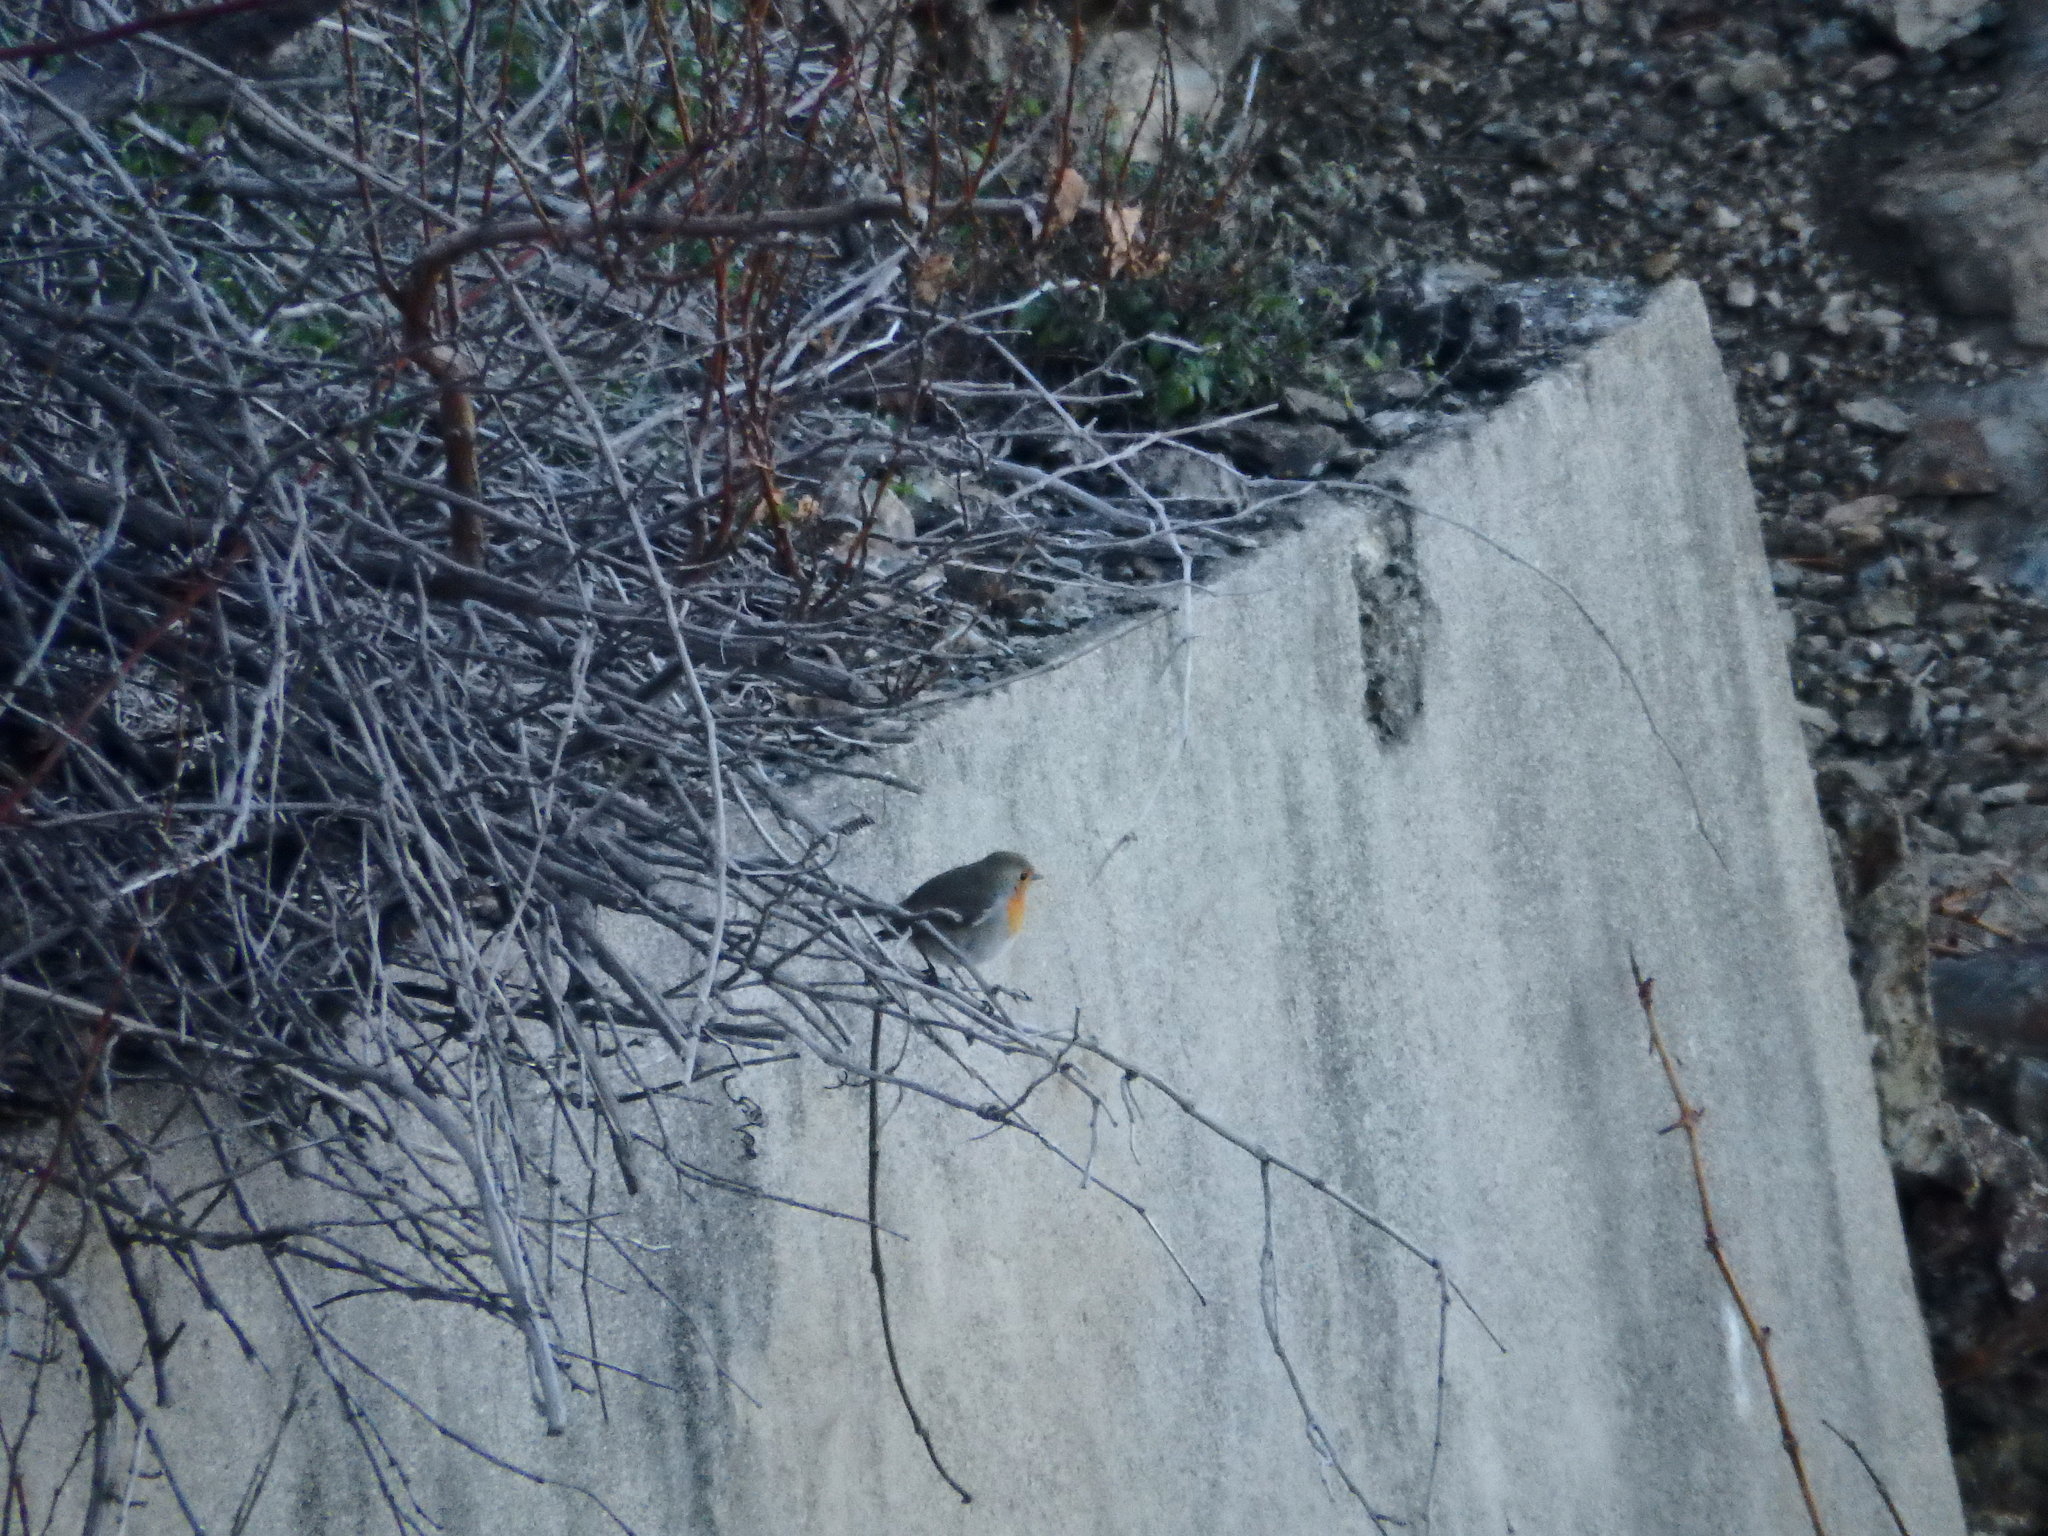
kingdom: Animalia
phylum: Chordata
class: Aves
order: Passeriformes
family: Muscicapidae
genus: Erithacus
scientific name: Erithacus rubecula
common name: European robin
